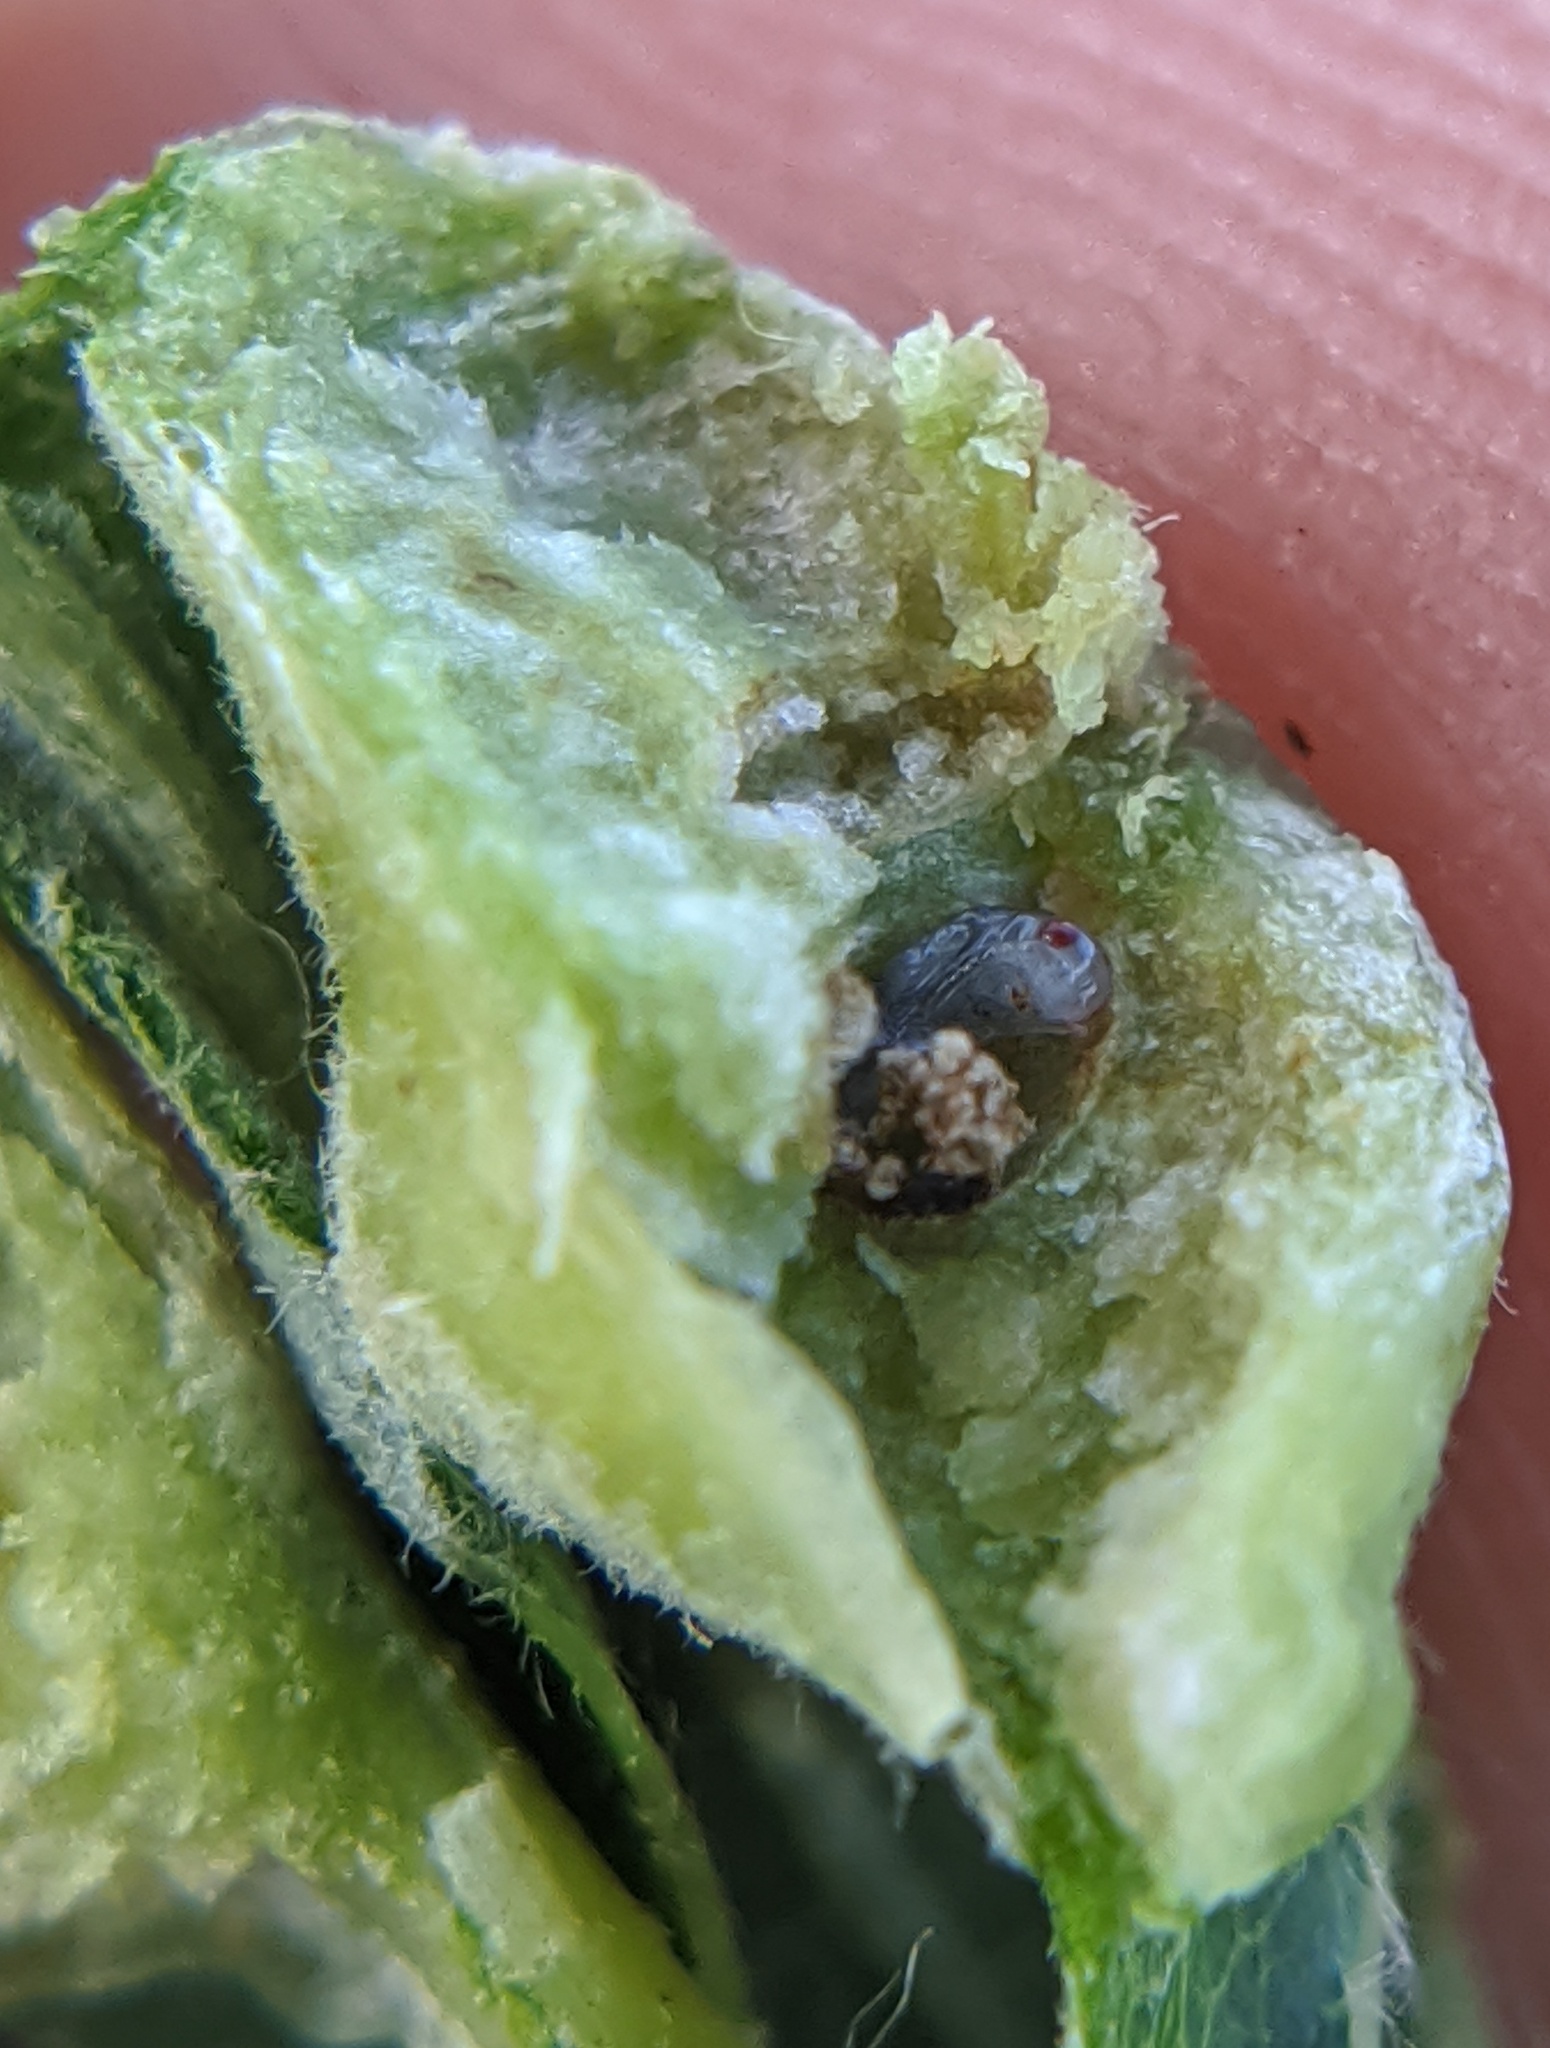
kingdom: Animalia
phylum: Arthropoda
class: Insecta
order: Hymenoptera
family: Cynipidae
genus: Bassettia
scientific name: Bassettia flavipes
